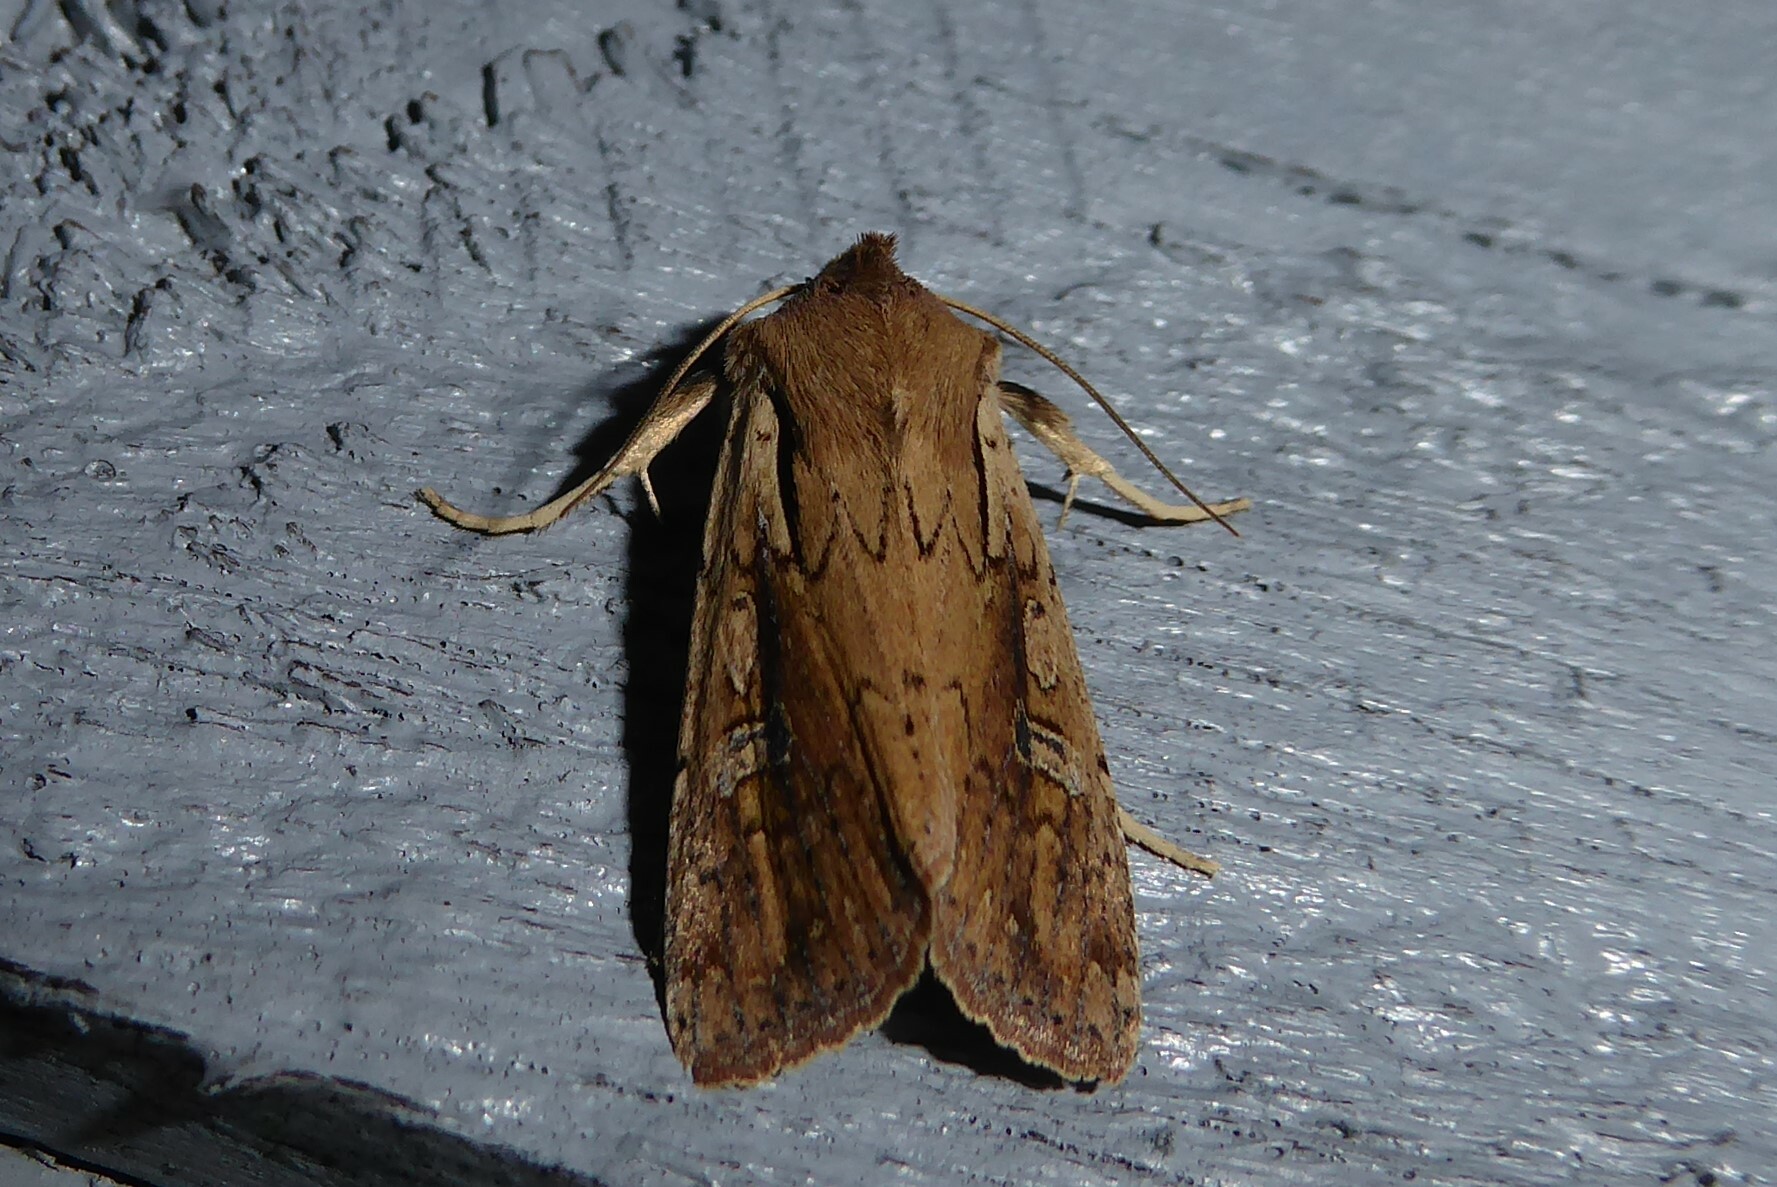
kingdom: Animalia
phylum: Arthropoda
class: Insecta
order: Lepidoptera
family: Noctuidae
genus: Ichneutica
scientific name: Ichneutica atristriga
